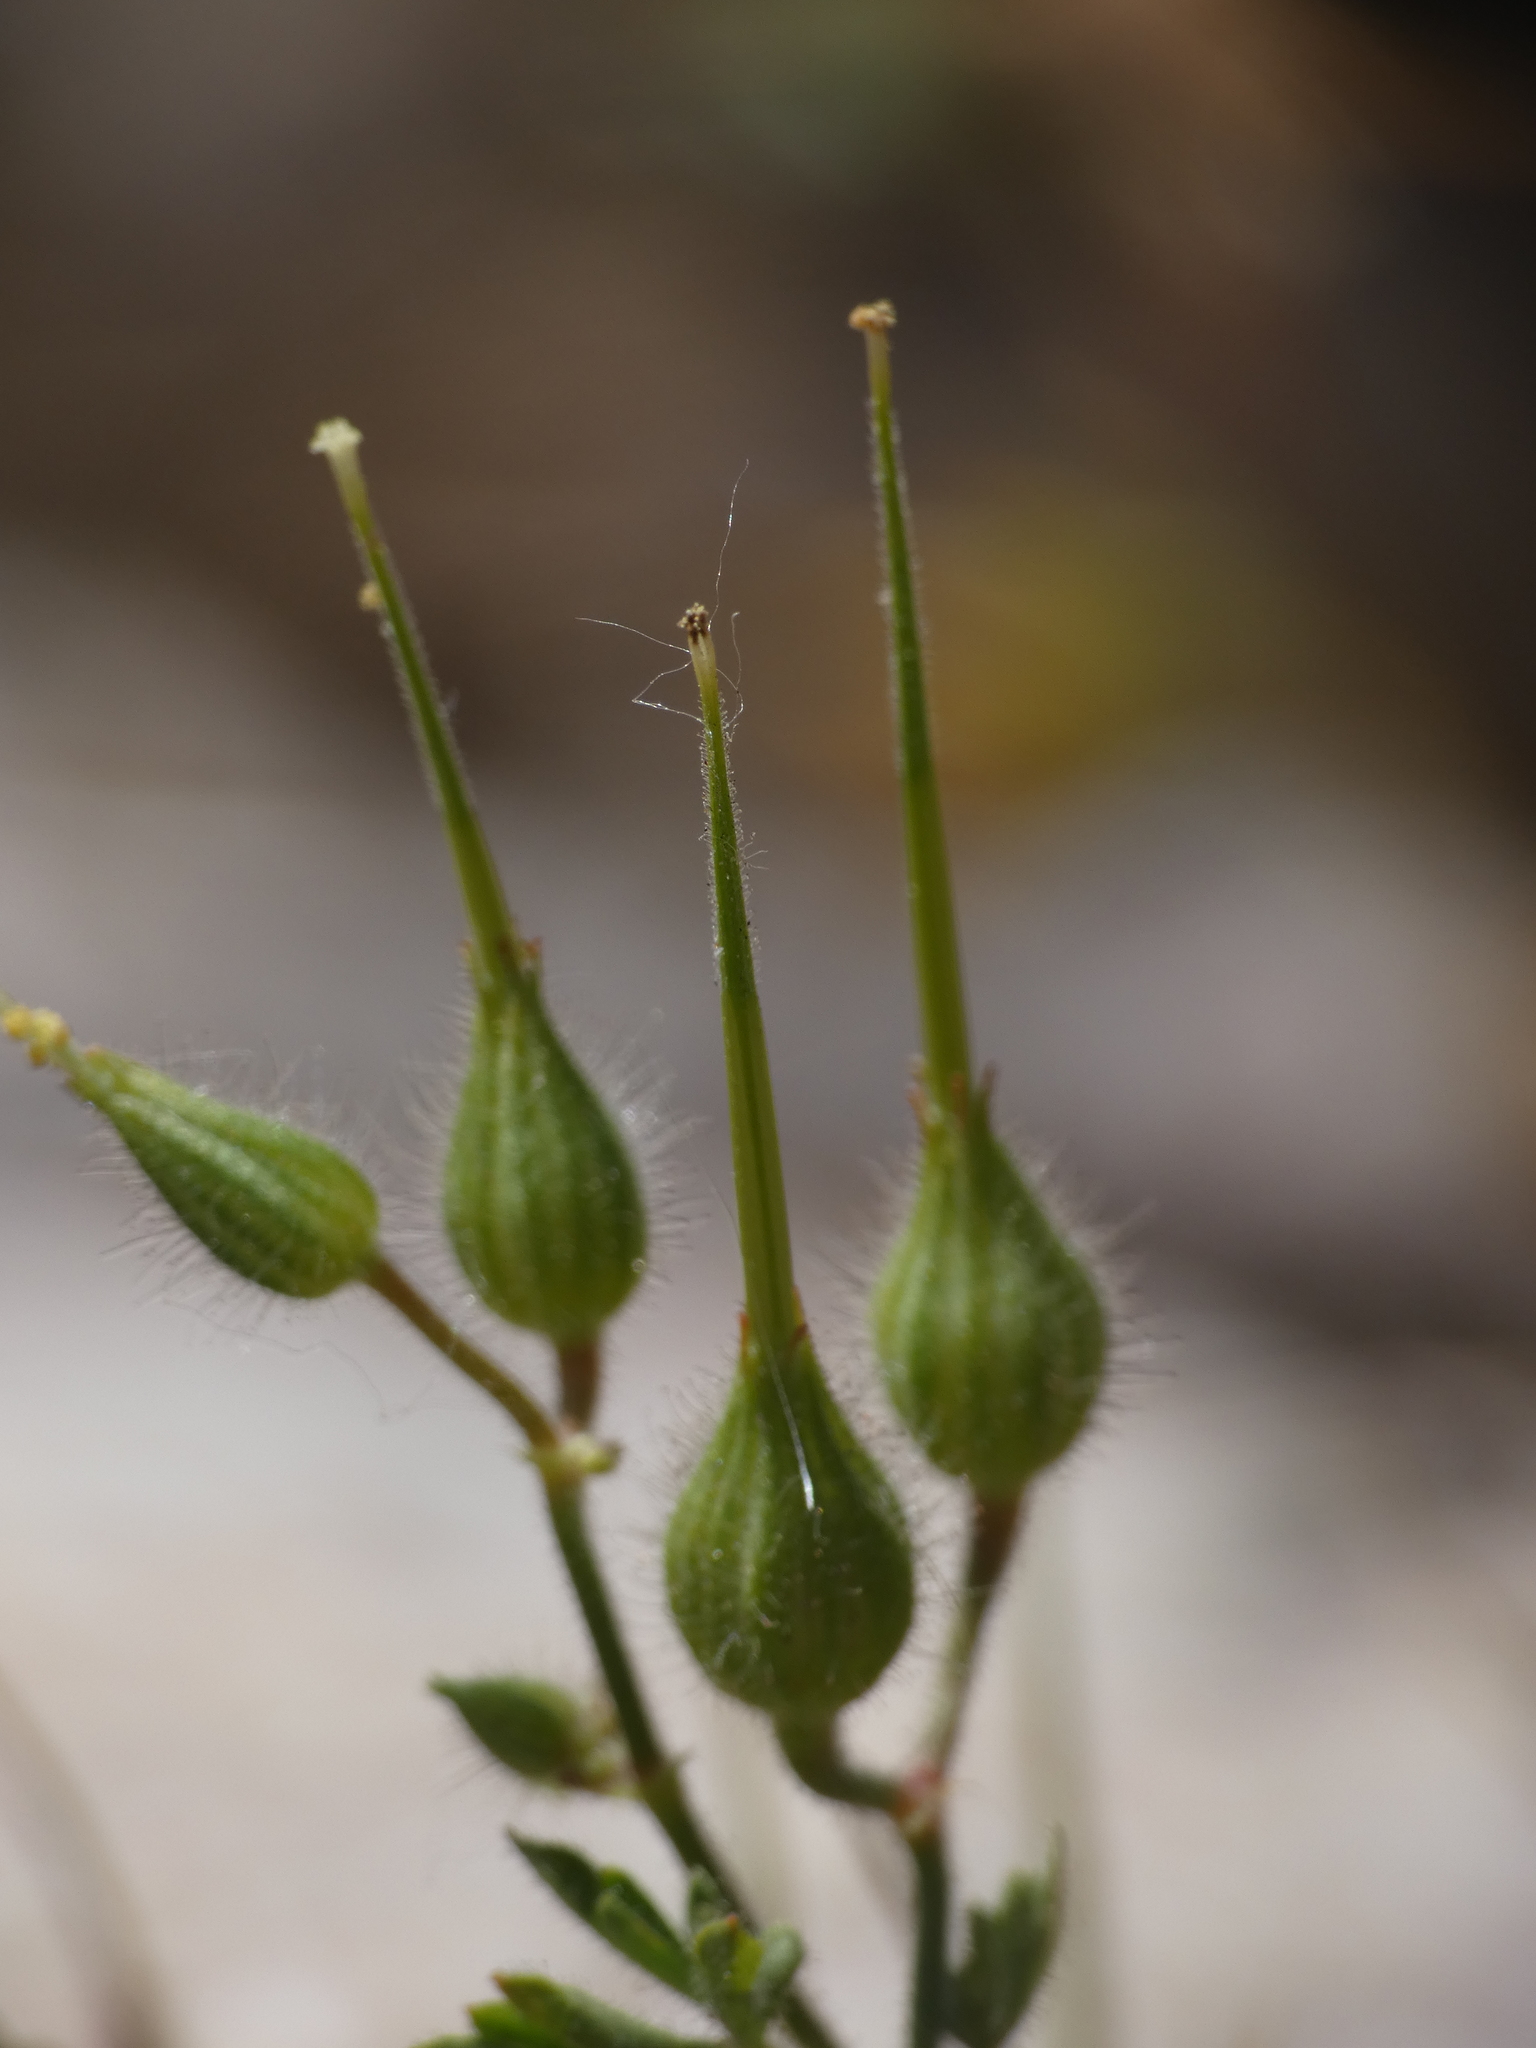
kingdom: Plantae
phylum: Tracheophyta
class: Magnoliopsida
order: Geraniales
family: Geraniaceae
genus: Geranium
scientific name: Geranium purpureum
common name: Little-robin
